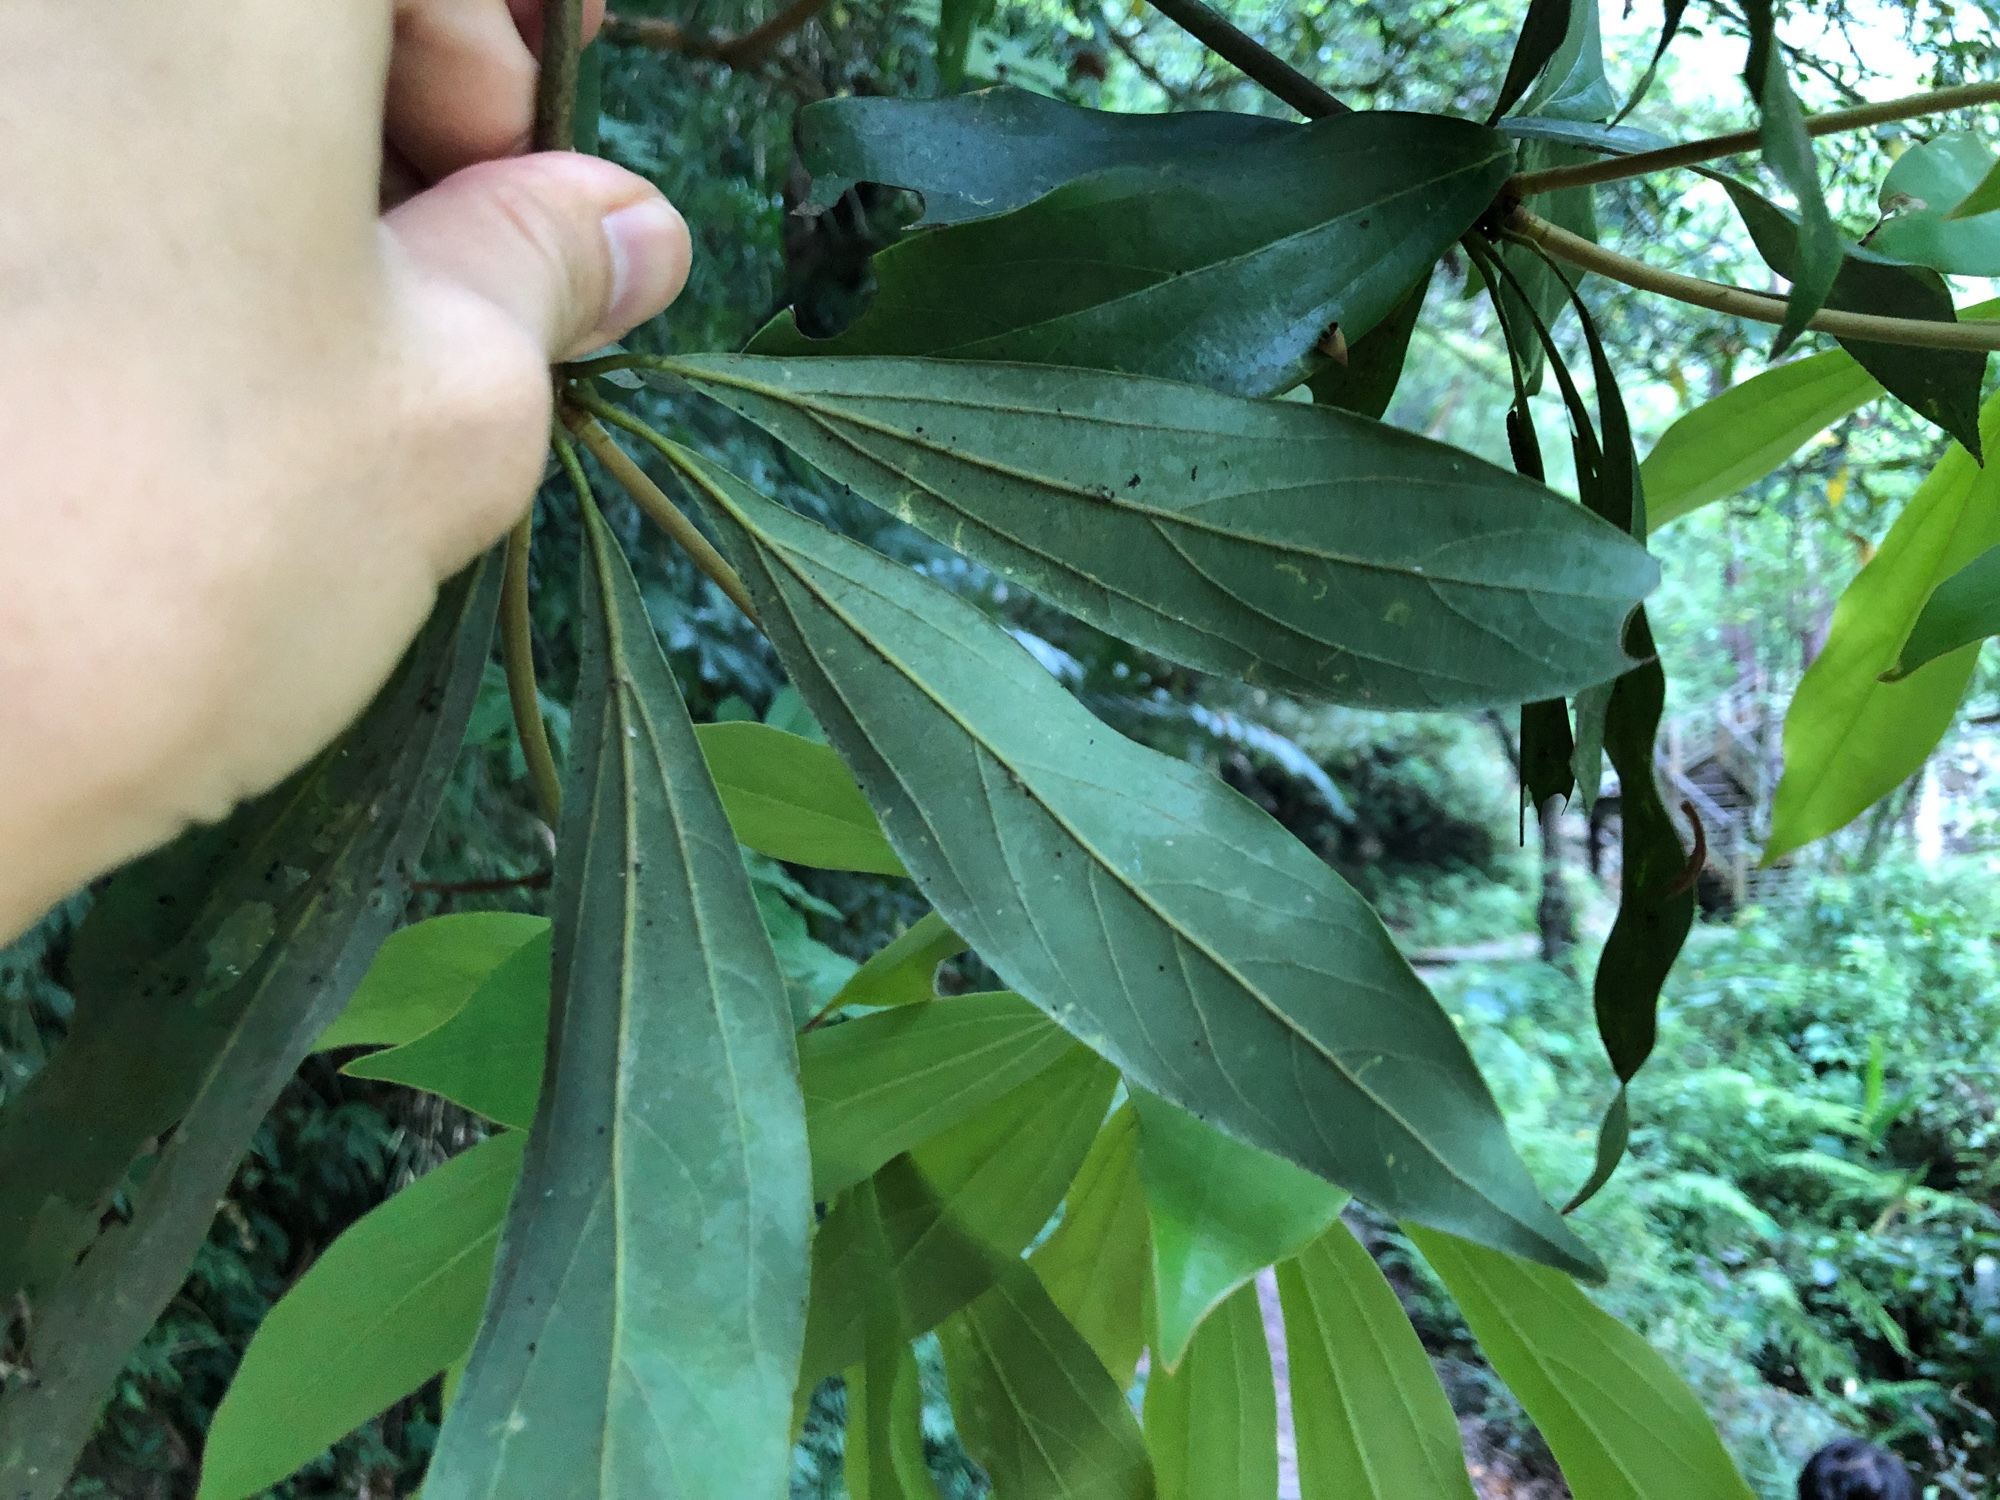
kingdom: Plantae
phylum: Tracheophyta
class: Magnoliopsida
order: Laurales
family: Lauraceae
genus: Neolitsea
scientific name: Neolitsea konishii
